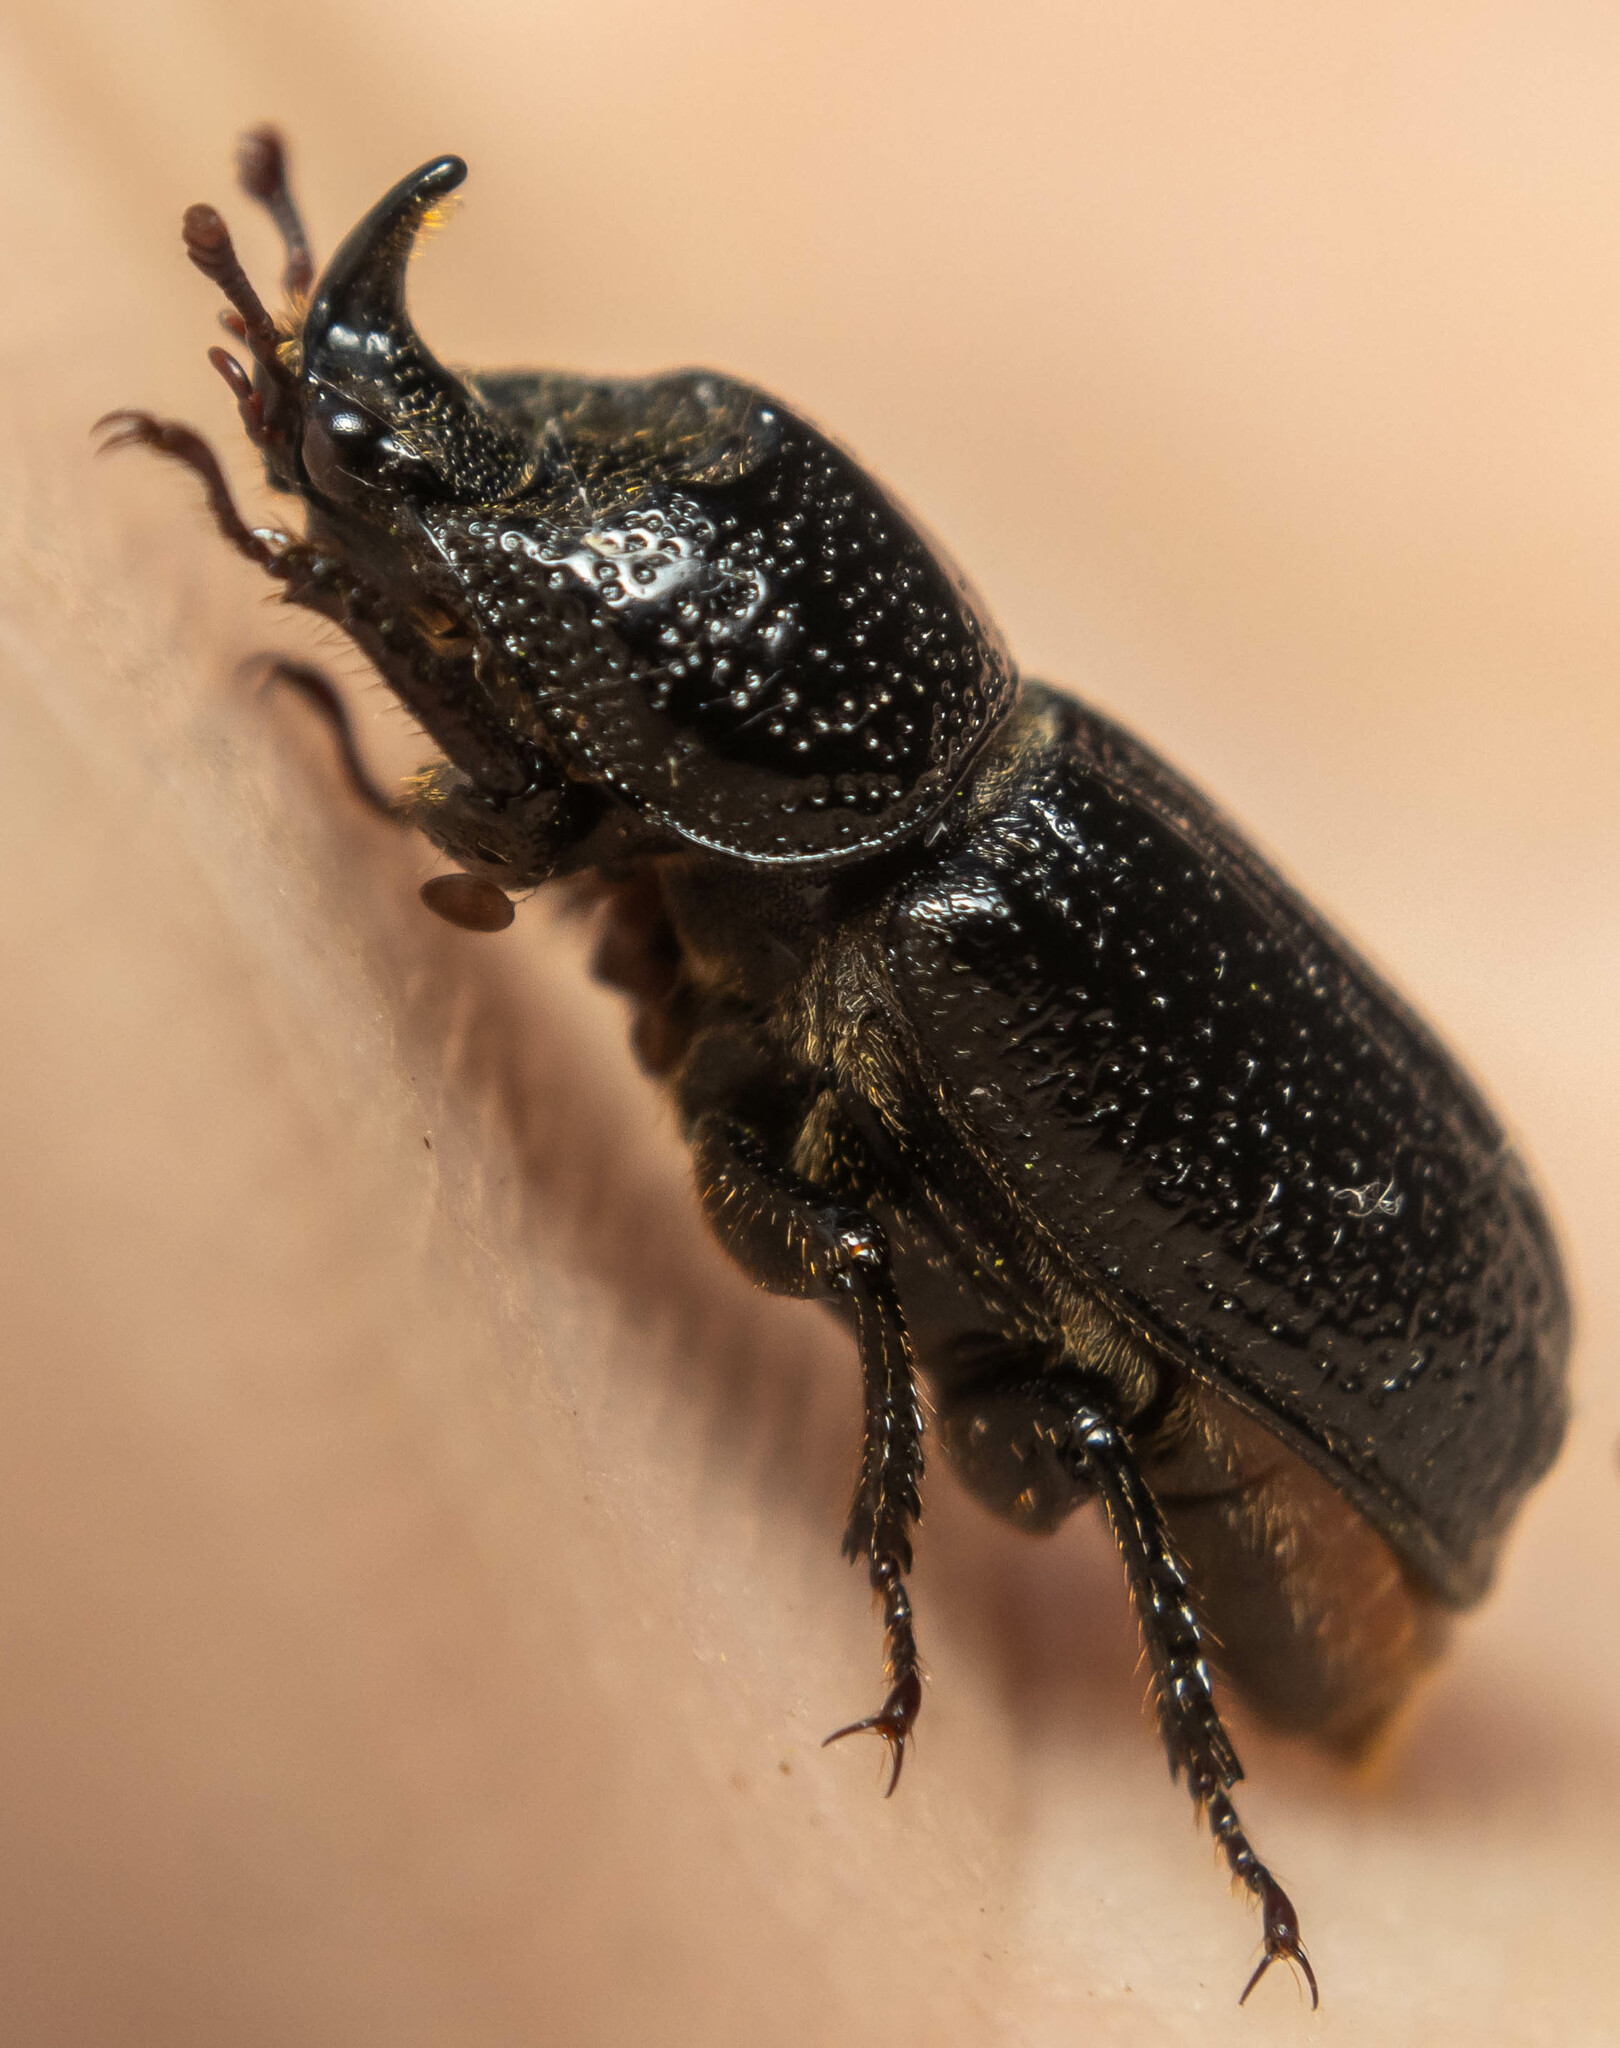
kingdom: Animalia
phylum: Arthropoda
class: Insecta
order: Coleoptera
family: Lucanidae
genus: Sinodendron
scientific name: Sinodendron cylindricum
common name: Rhinoceros beetle
